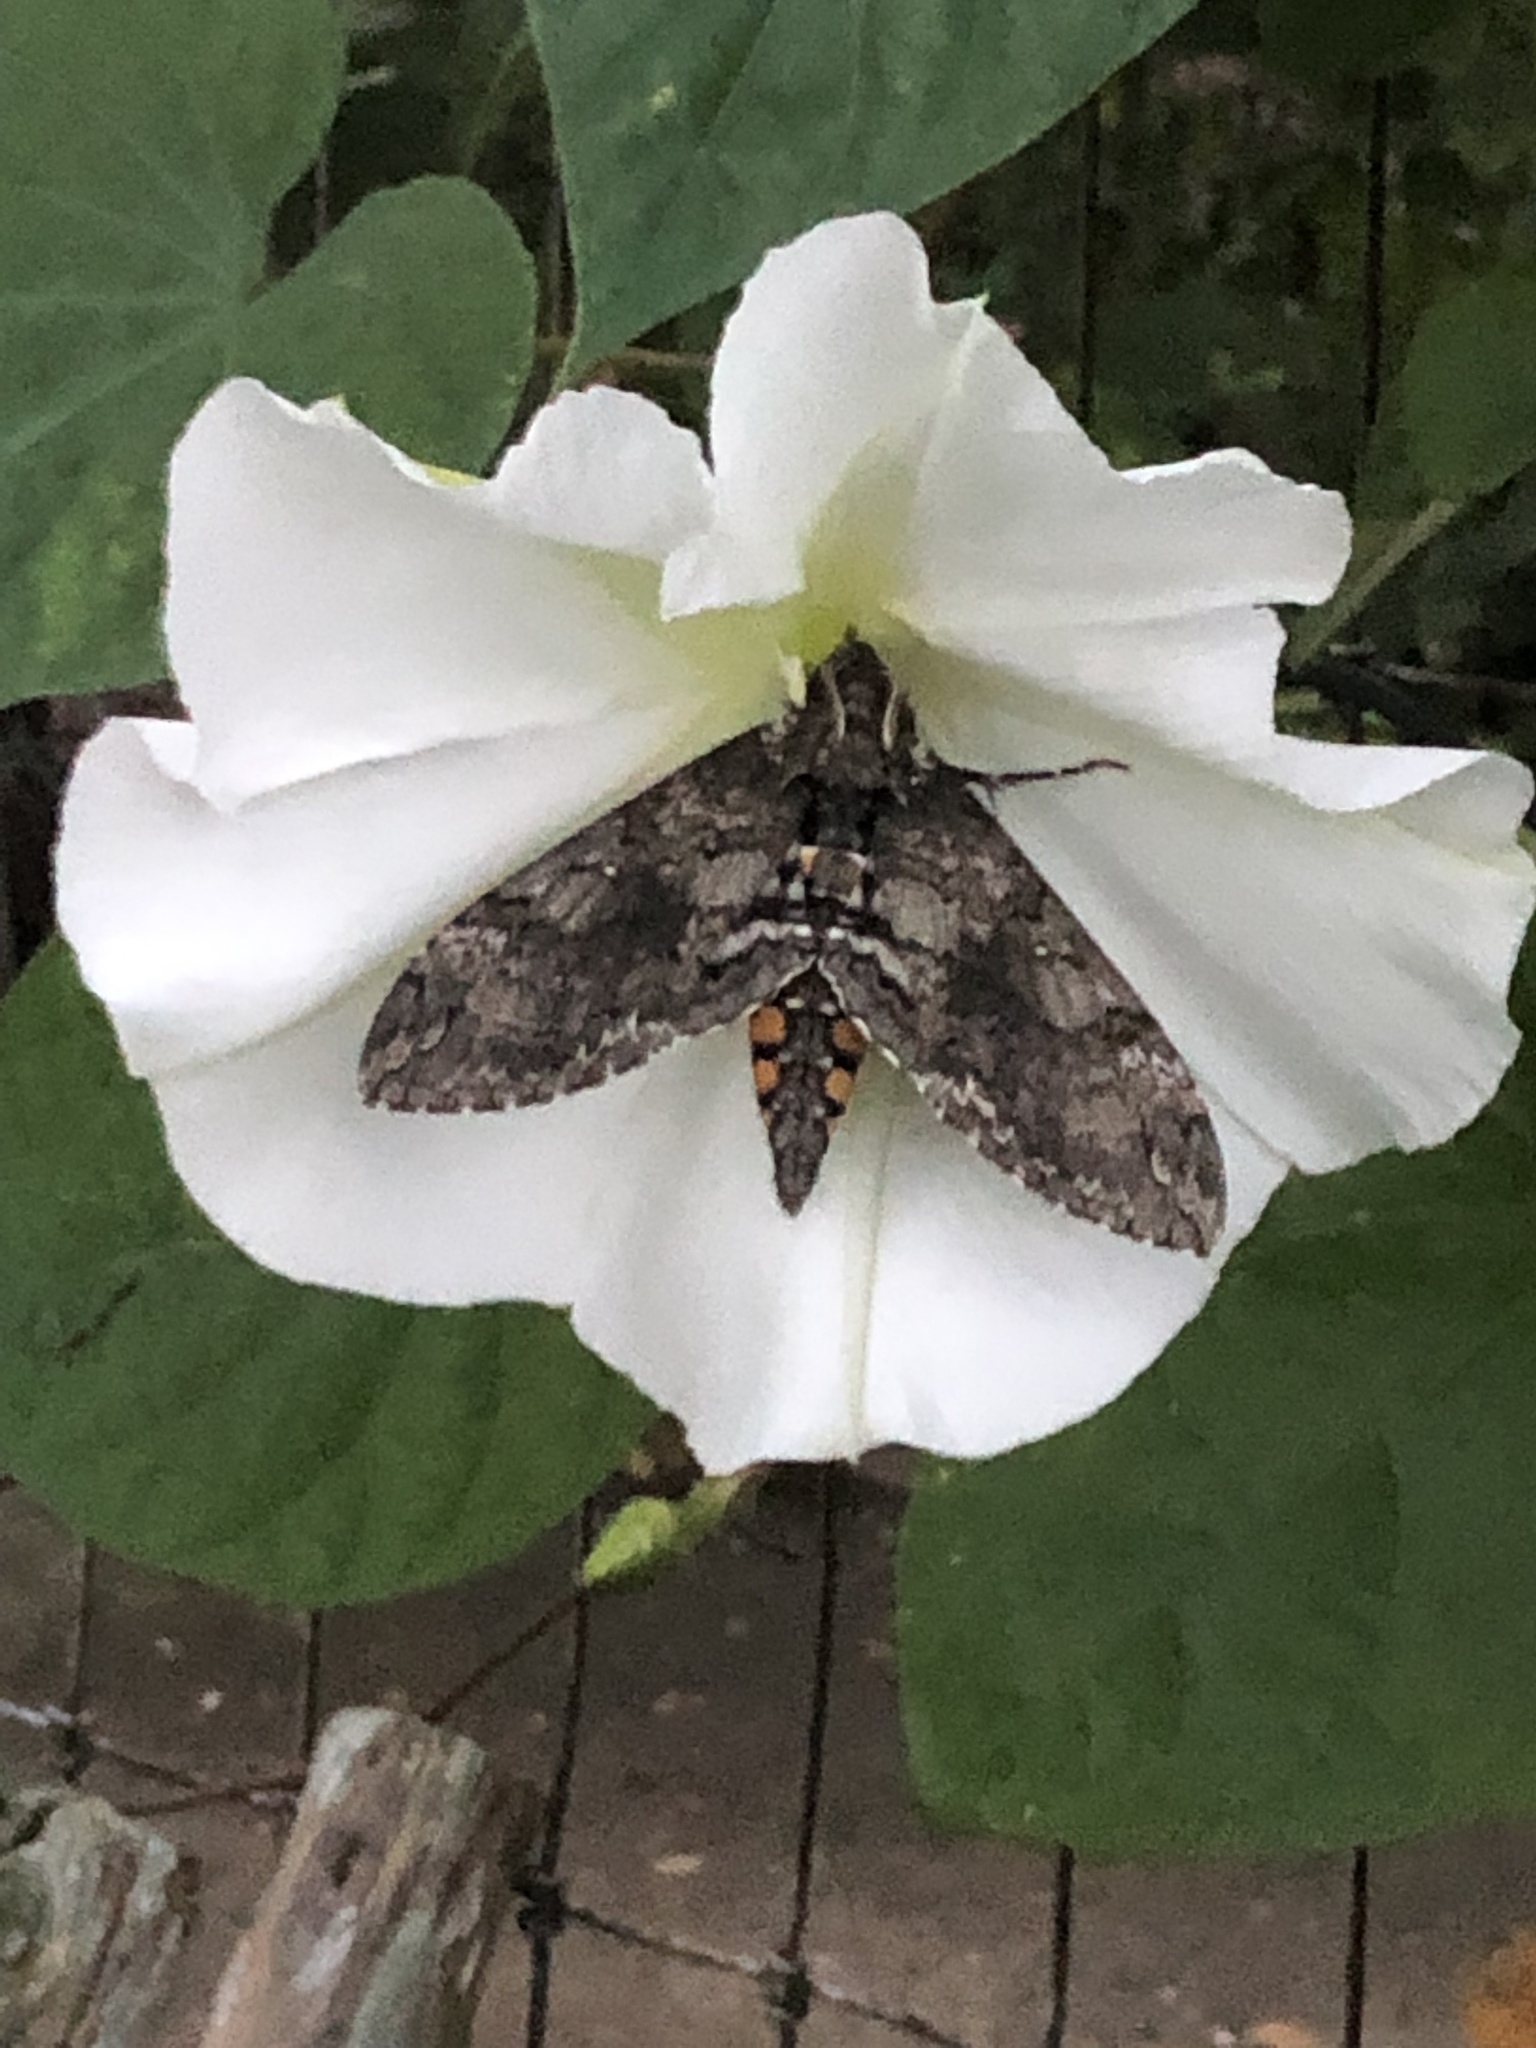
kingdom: Animalia
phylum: Arthropoda
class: Insecta
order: Lepidoptera
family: Sphingidae
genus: Manduca
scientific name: Manduca sexta
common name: Carolina sphinx
